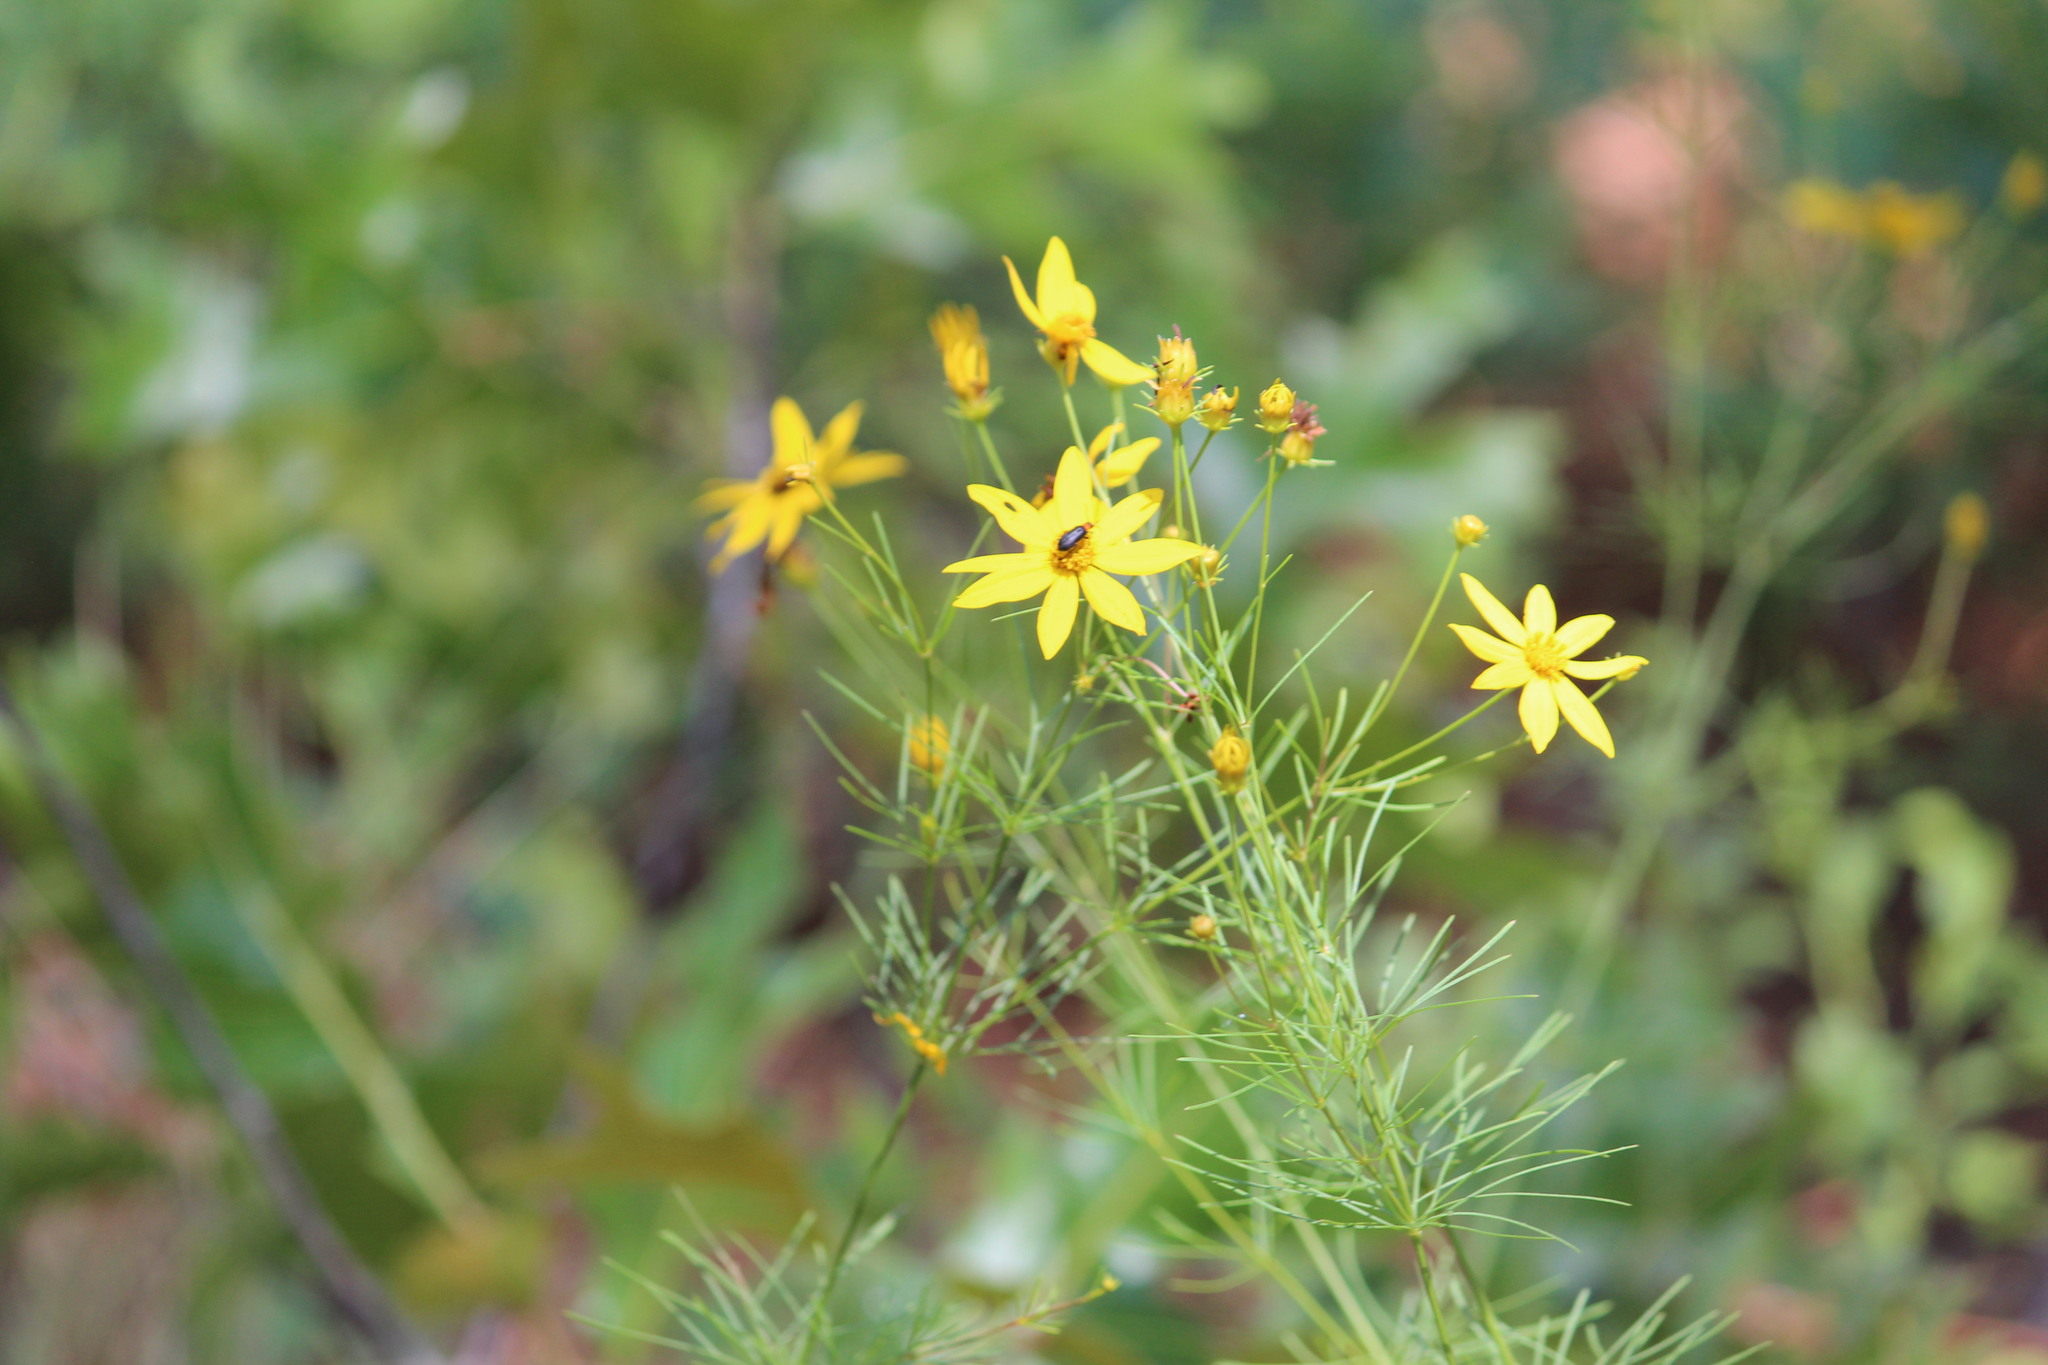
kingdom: Plantae
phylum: Tracheophyta
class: Magnoliopsida
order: Asterales
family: Asteraceae
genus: Coreopsis
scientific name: Coreopsis verticillata
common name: Whorled tickseed
